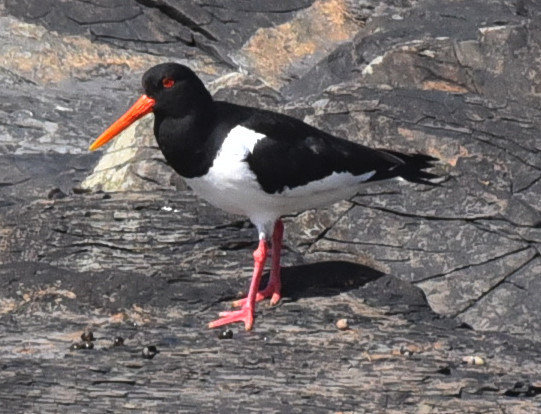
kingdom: Animalia
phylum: Chordata
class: Aves
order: Charadriiformes
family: Haematopodidae
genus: Haematopus
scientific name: Haematopus ostralegus
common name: Eurasian oystercatcher
